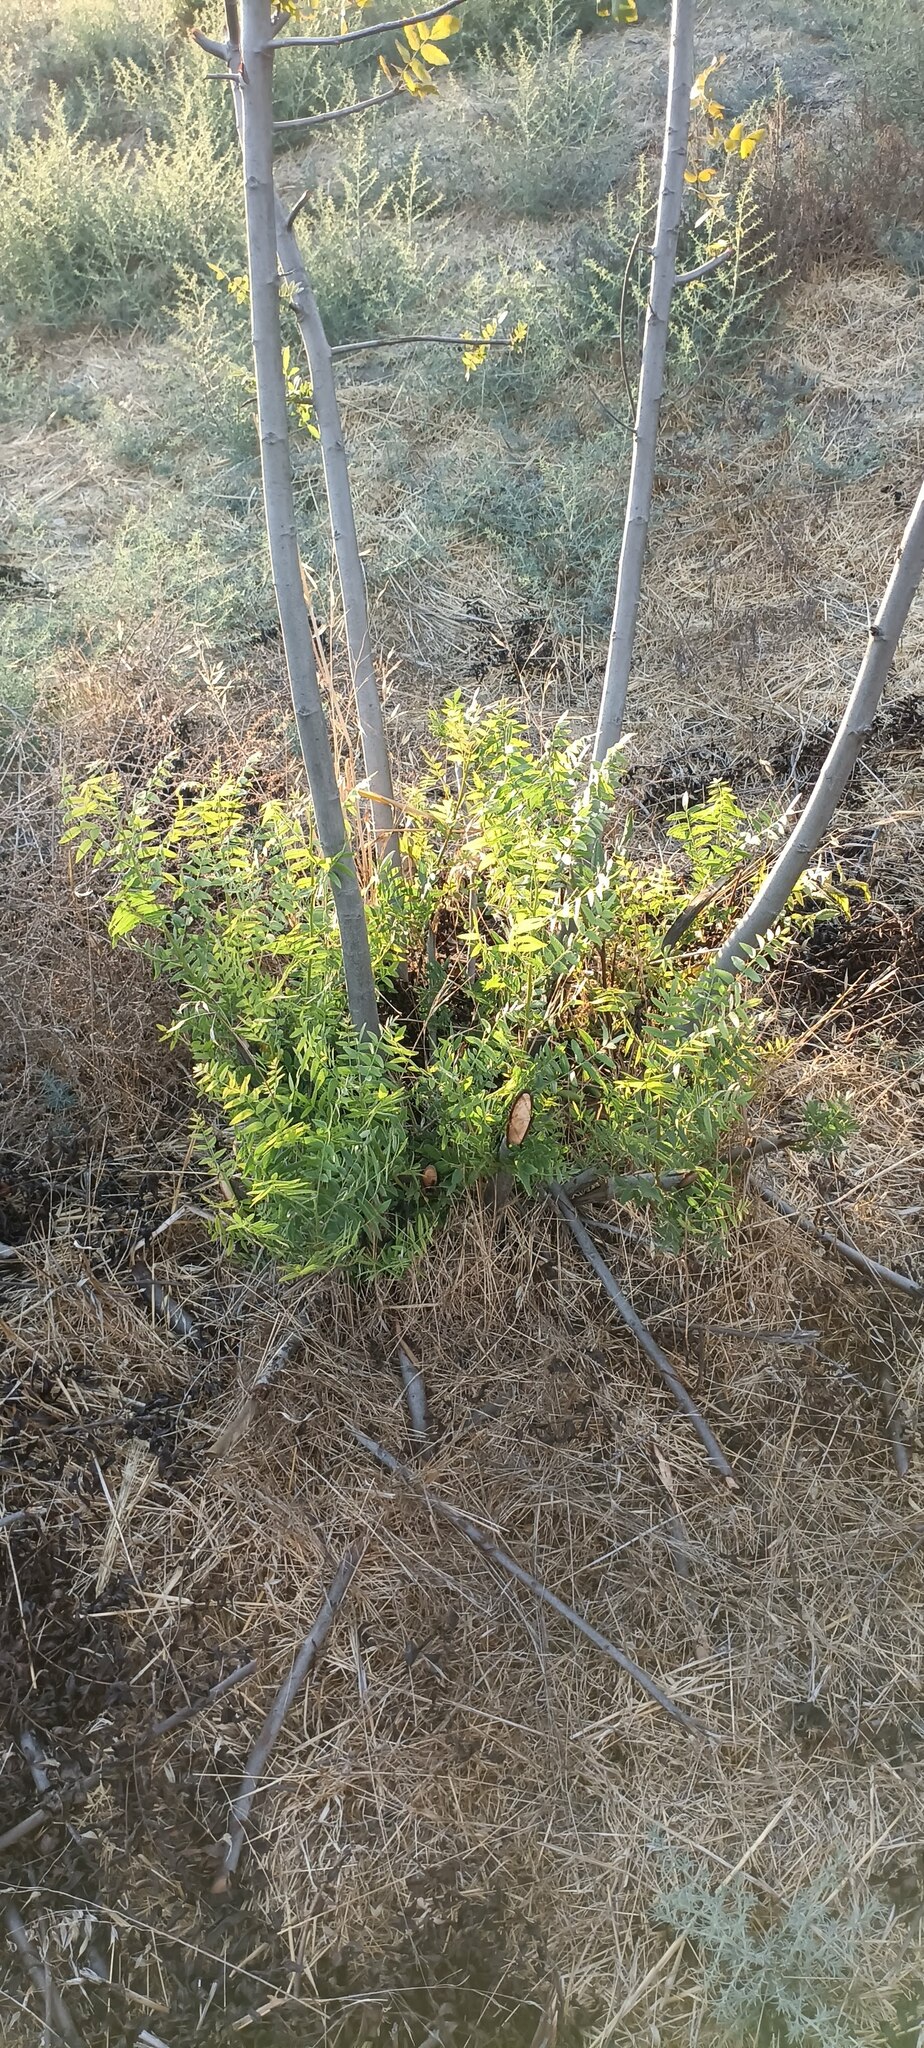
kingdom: Plantae
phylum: Tracheophyta
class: Magnoliopsida
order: Fagales
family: Juglandaceae
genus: Juglans
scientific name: Juglans californica
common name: Southern california black walnut
